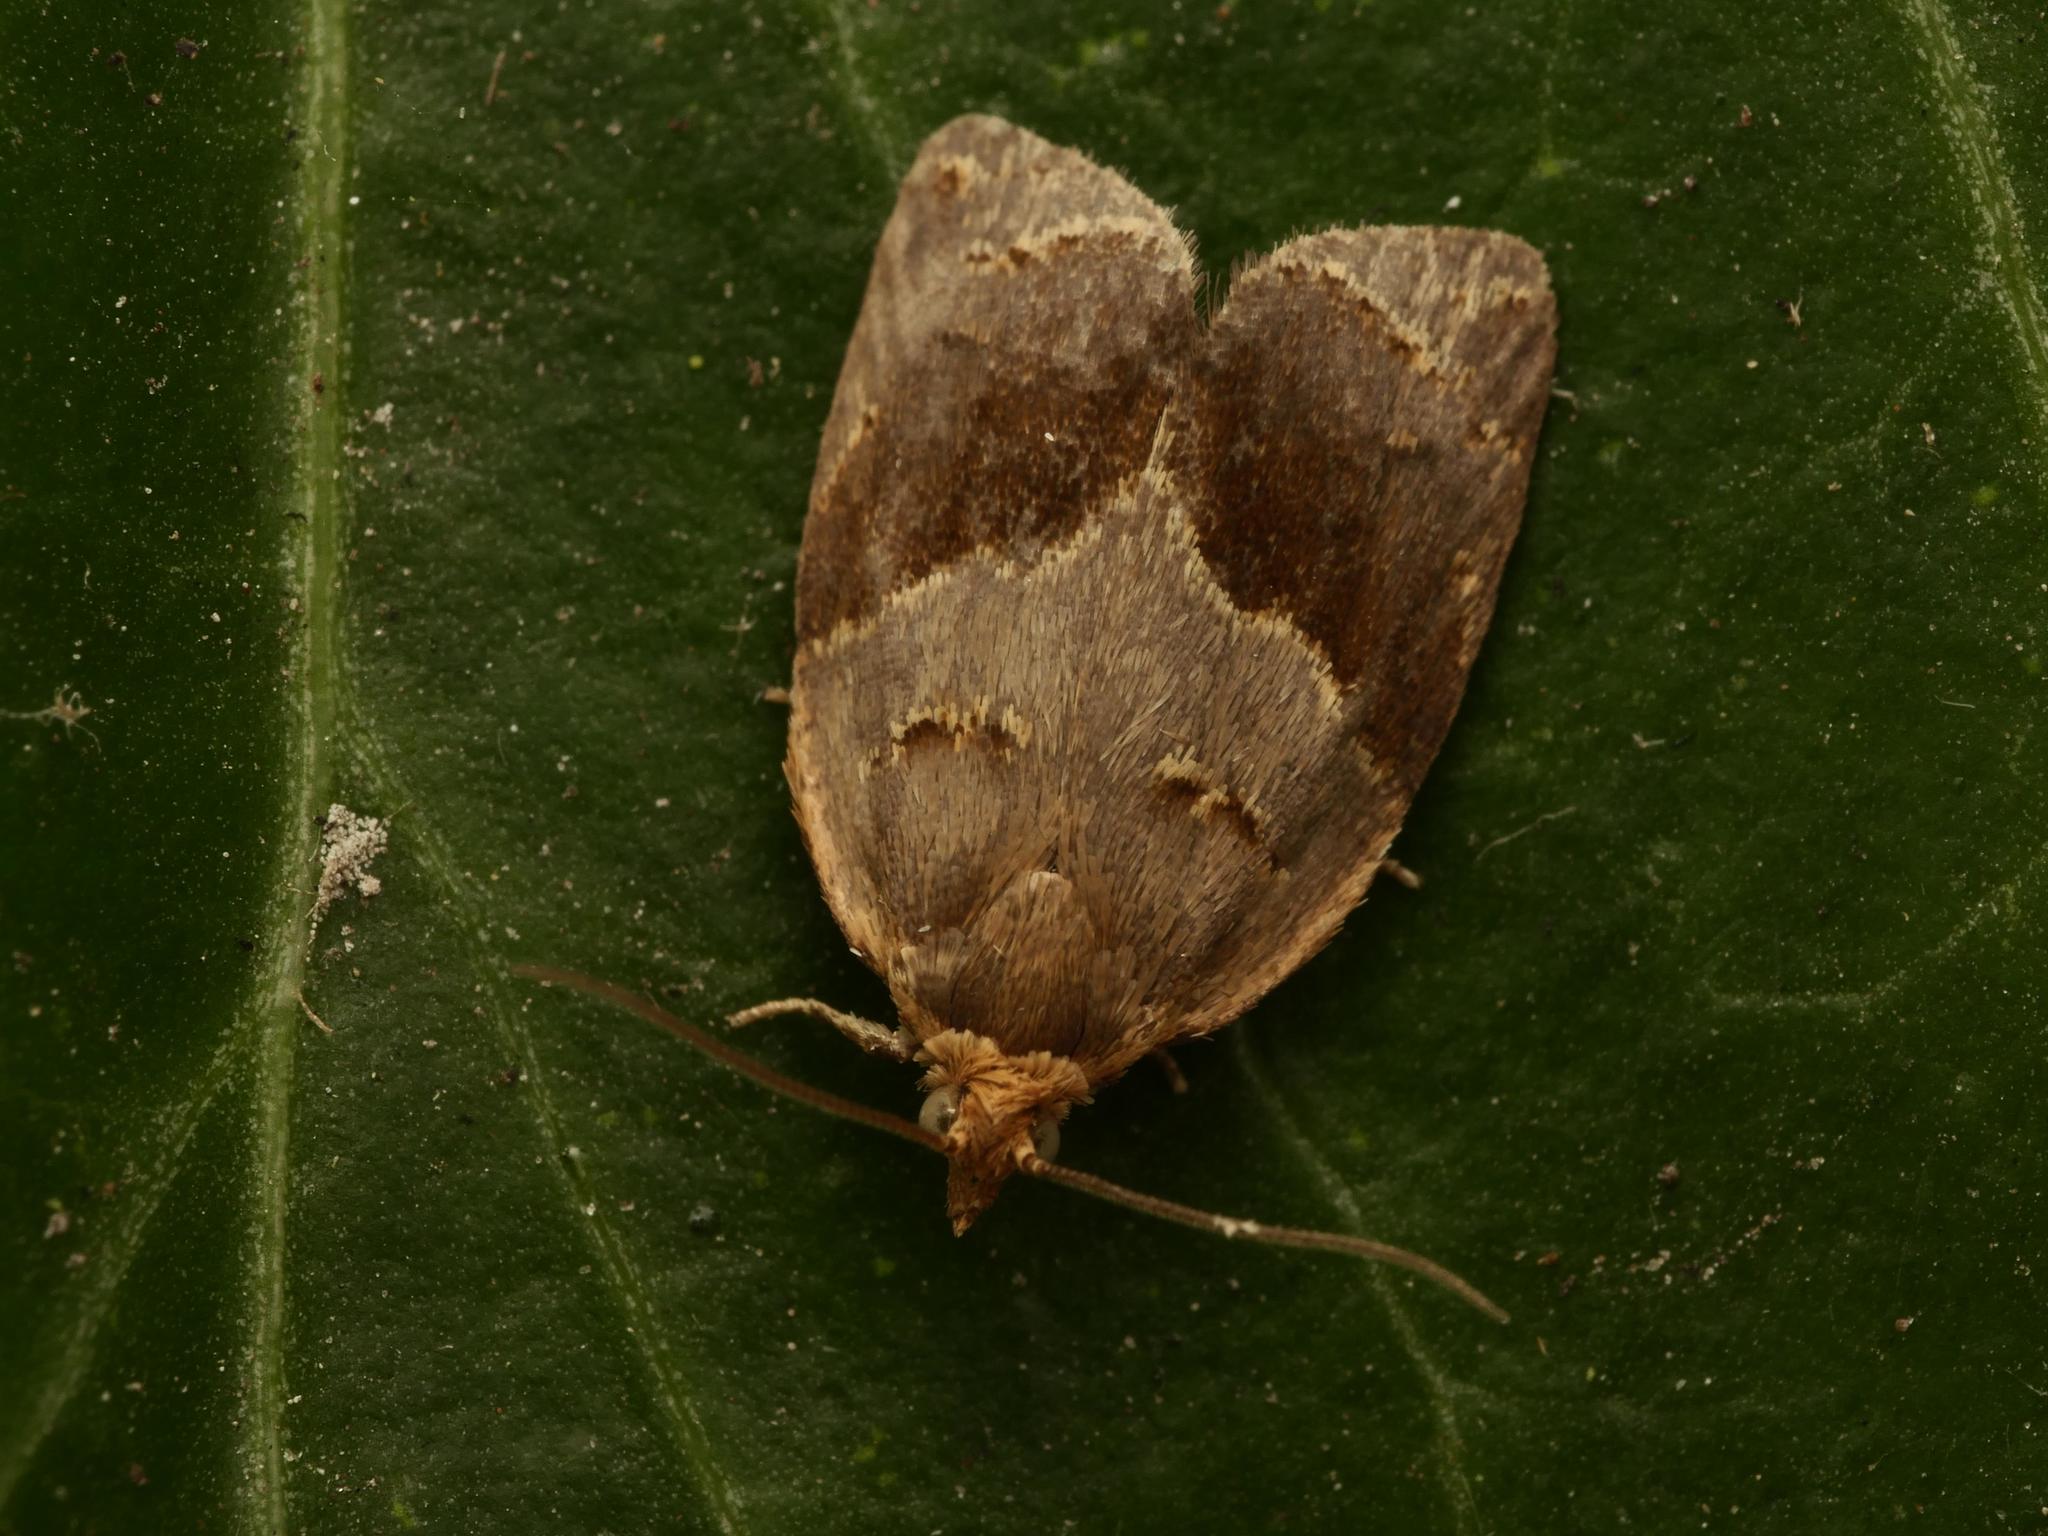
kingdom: Animalia
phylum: Arthropoda
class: Insecta
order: Lepidoptera
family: Tortricidae
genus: Clepsis
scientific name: Clepsis dumicolana
